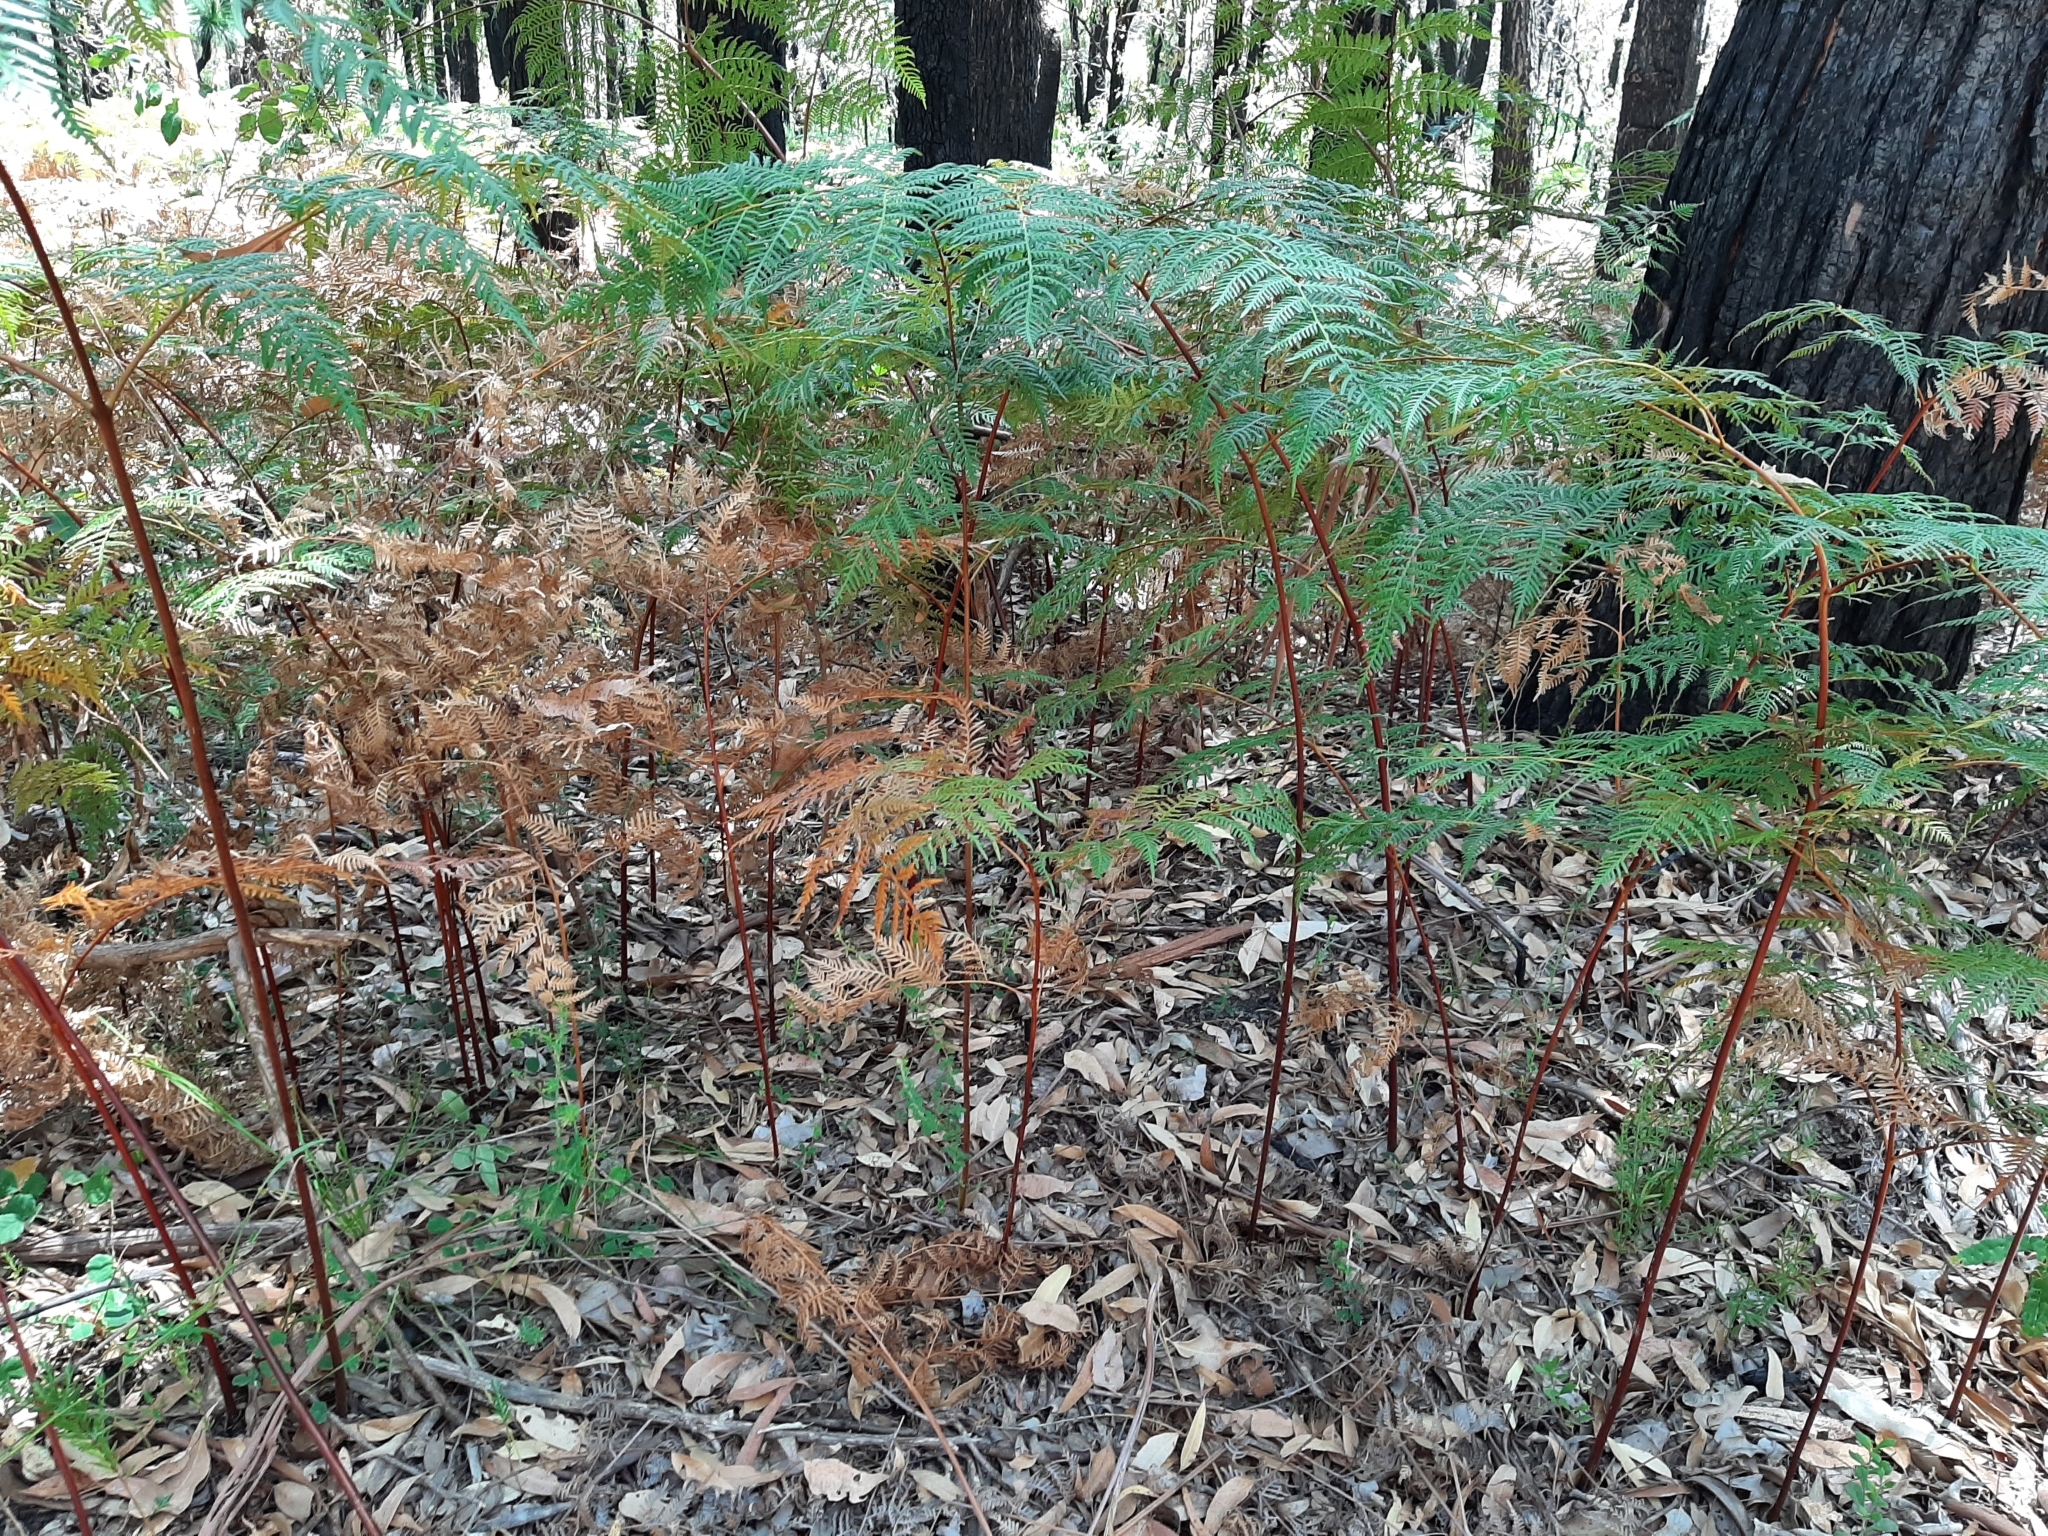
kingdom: Plantae
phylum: Tracheophyta
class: Polypodiopsida
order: Polypodiales
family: Dennstaedtiaceae
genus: Pteridium
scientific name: Pteridium esculentum
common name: Bracken fern
